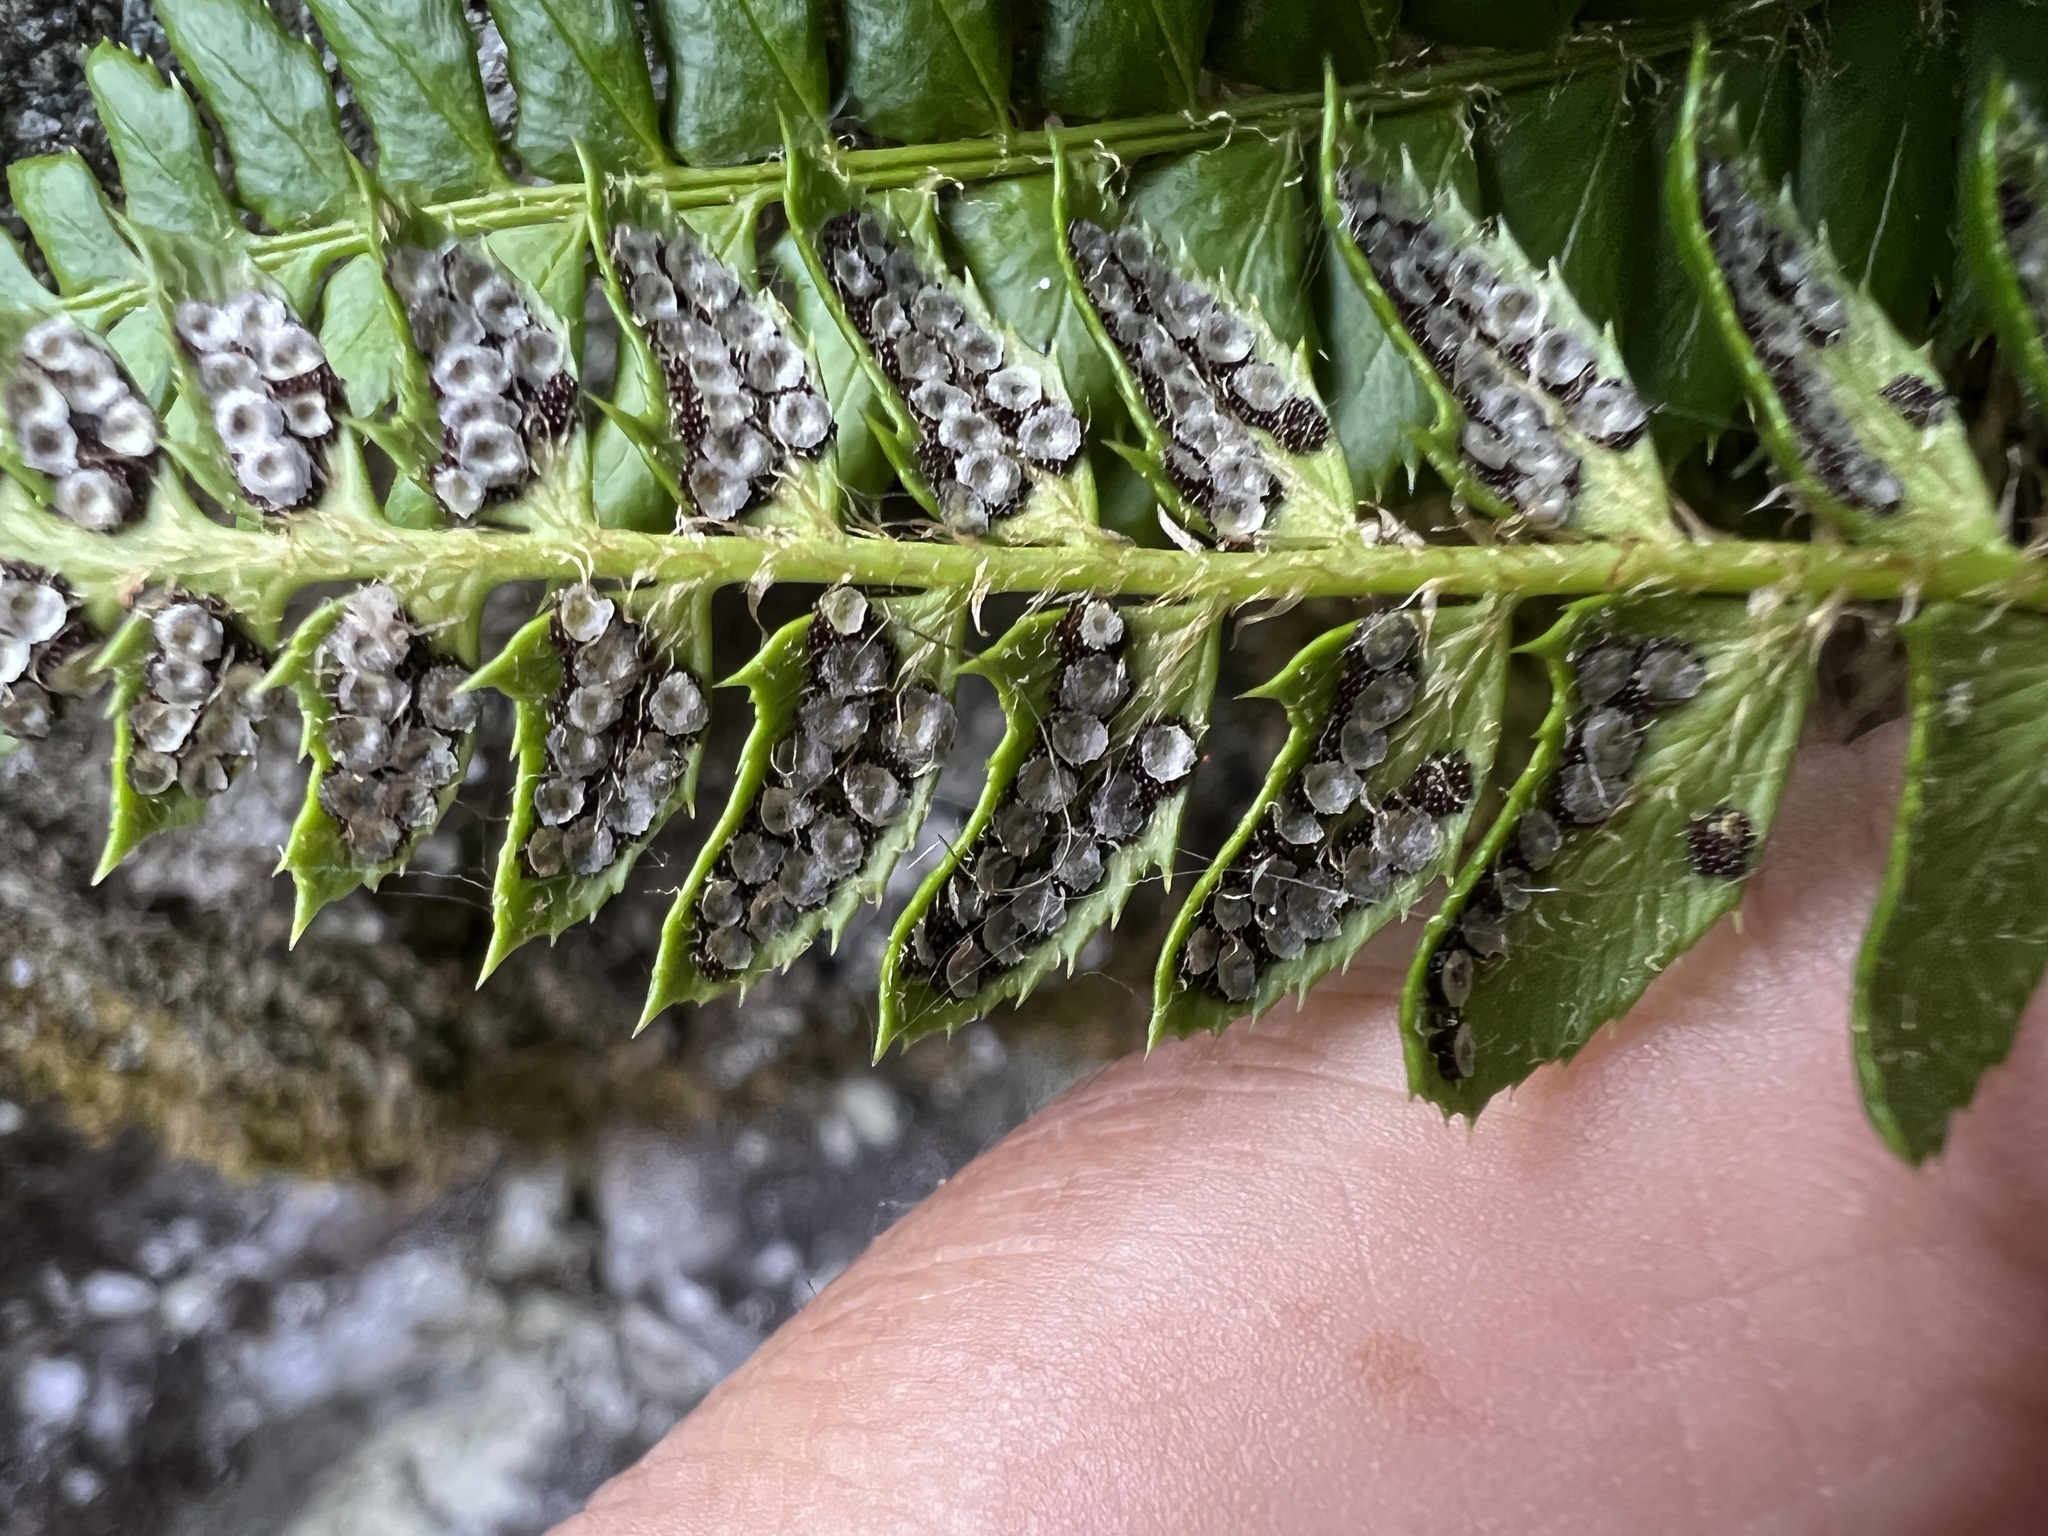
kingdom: Plantae
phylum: Tracheophyta
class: Polypodiopsida
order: Polypodiales
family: Dryopteridaceae
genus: Polystichum
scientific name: Polystichum lonchitis
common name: Holly fern
